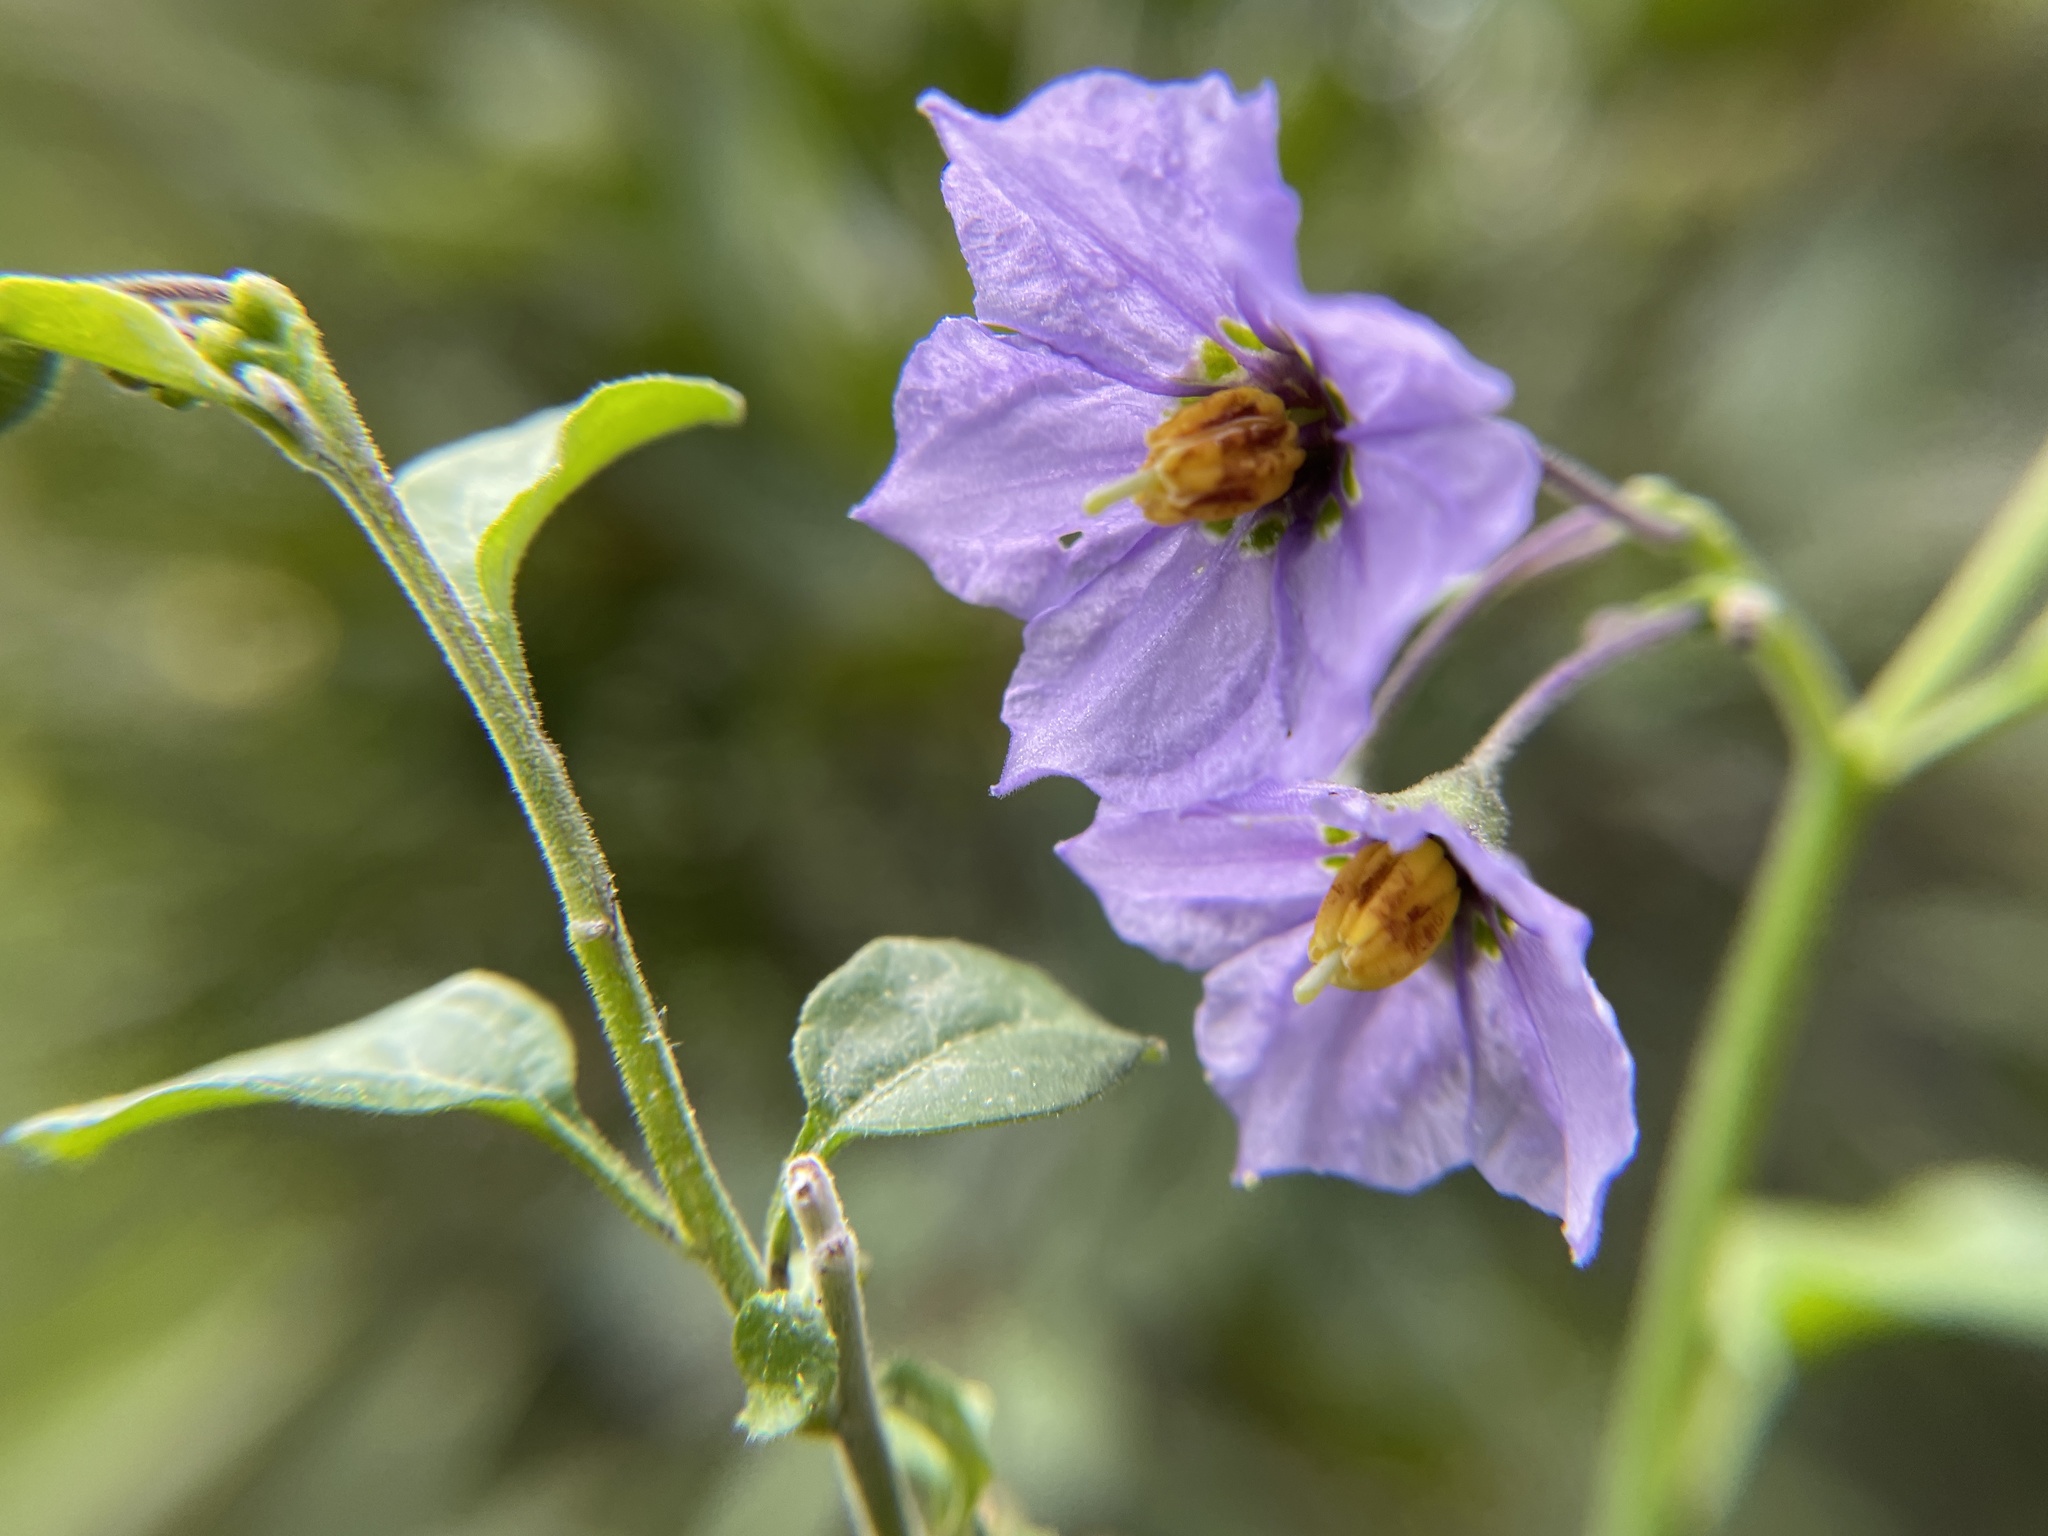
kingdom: Plantae
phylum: Tracheophyta
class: Magnoliopsida
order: Solanales
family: Solanaceae
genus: Solanum
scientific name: Solanum umbelliferum
